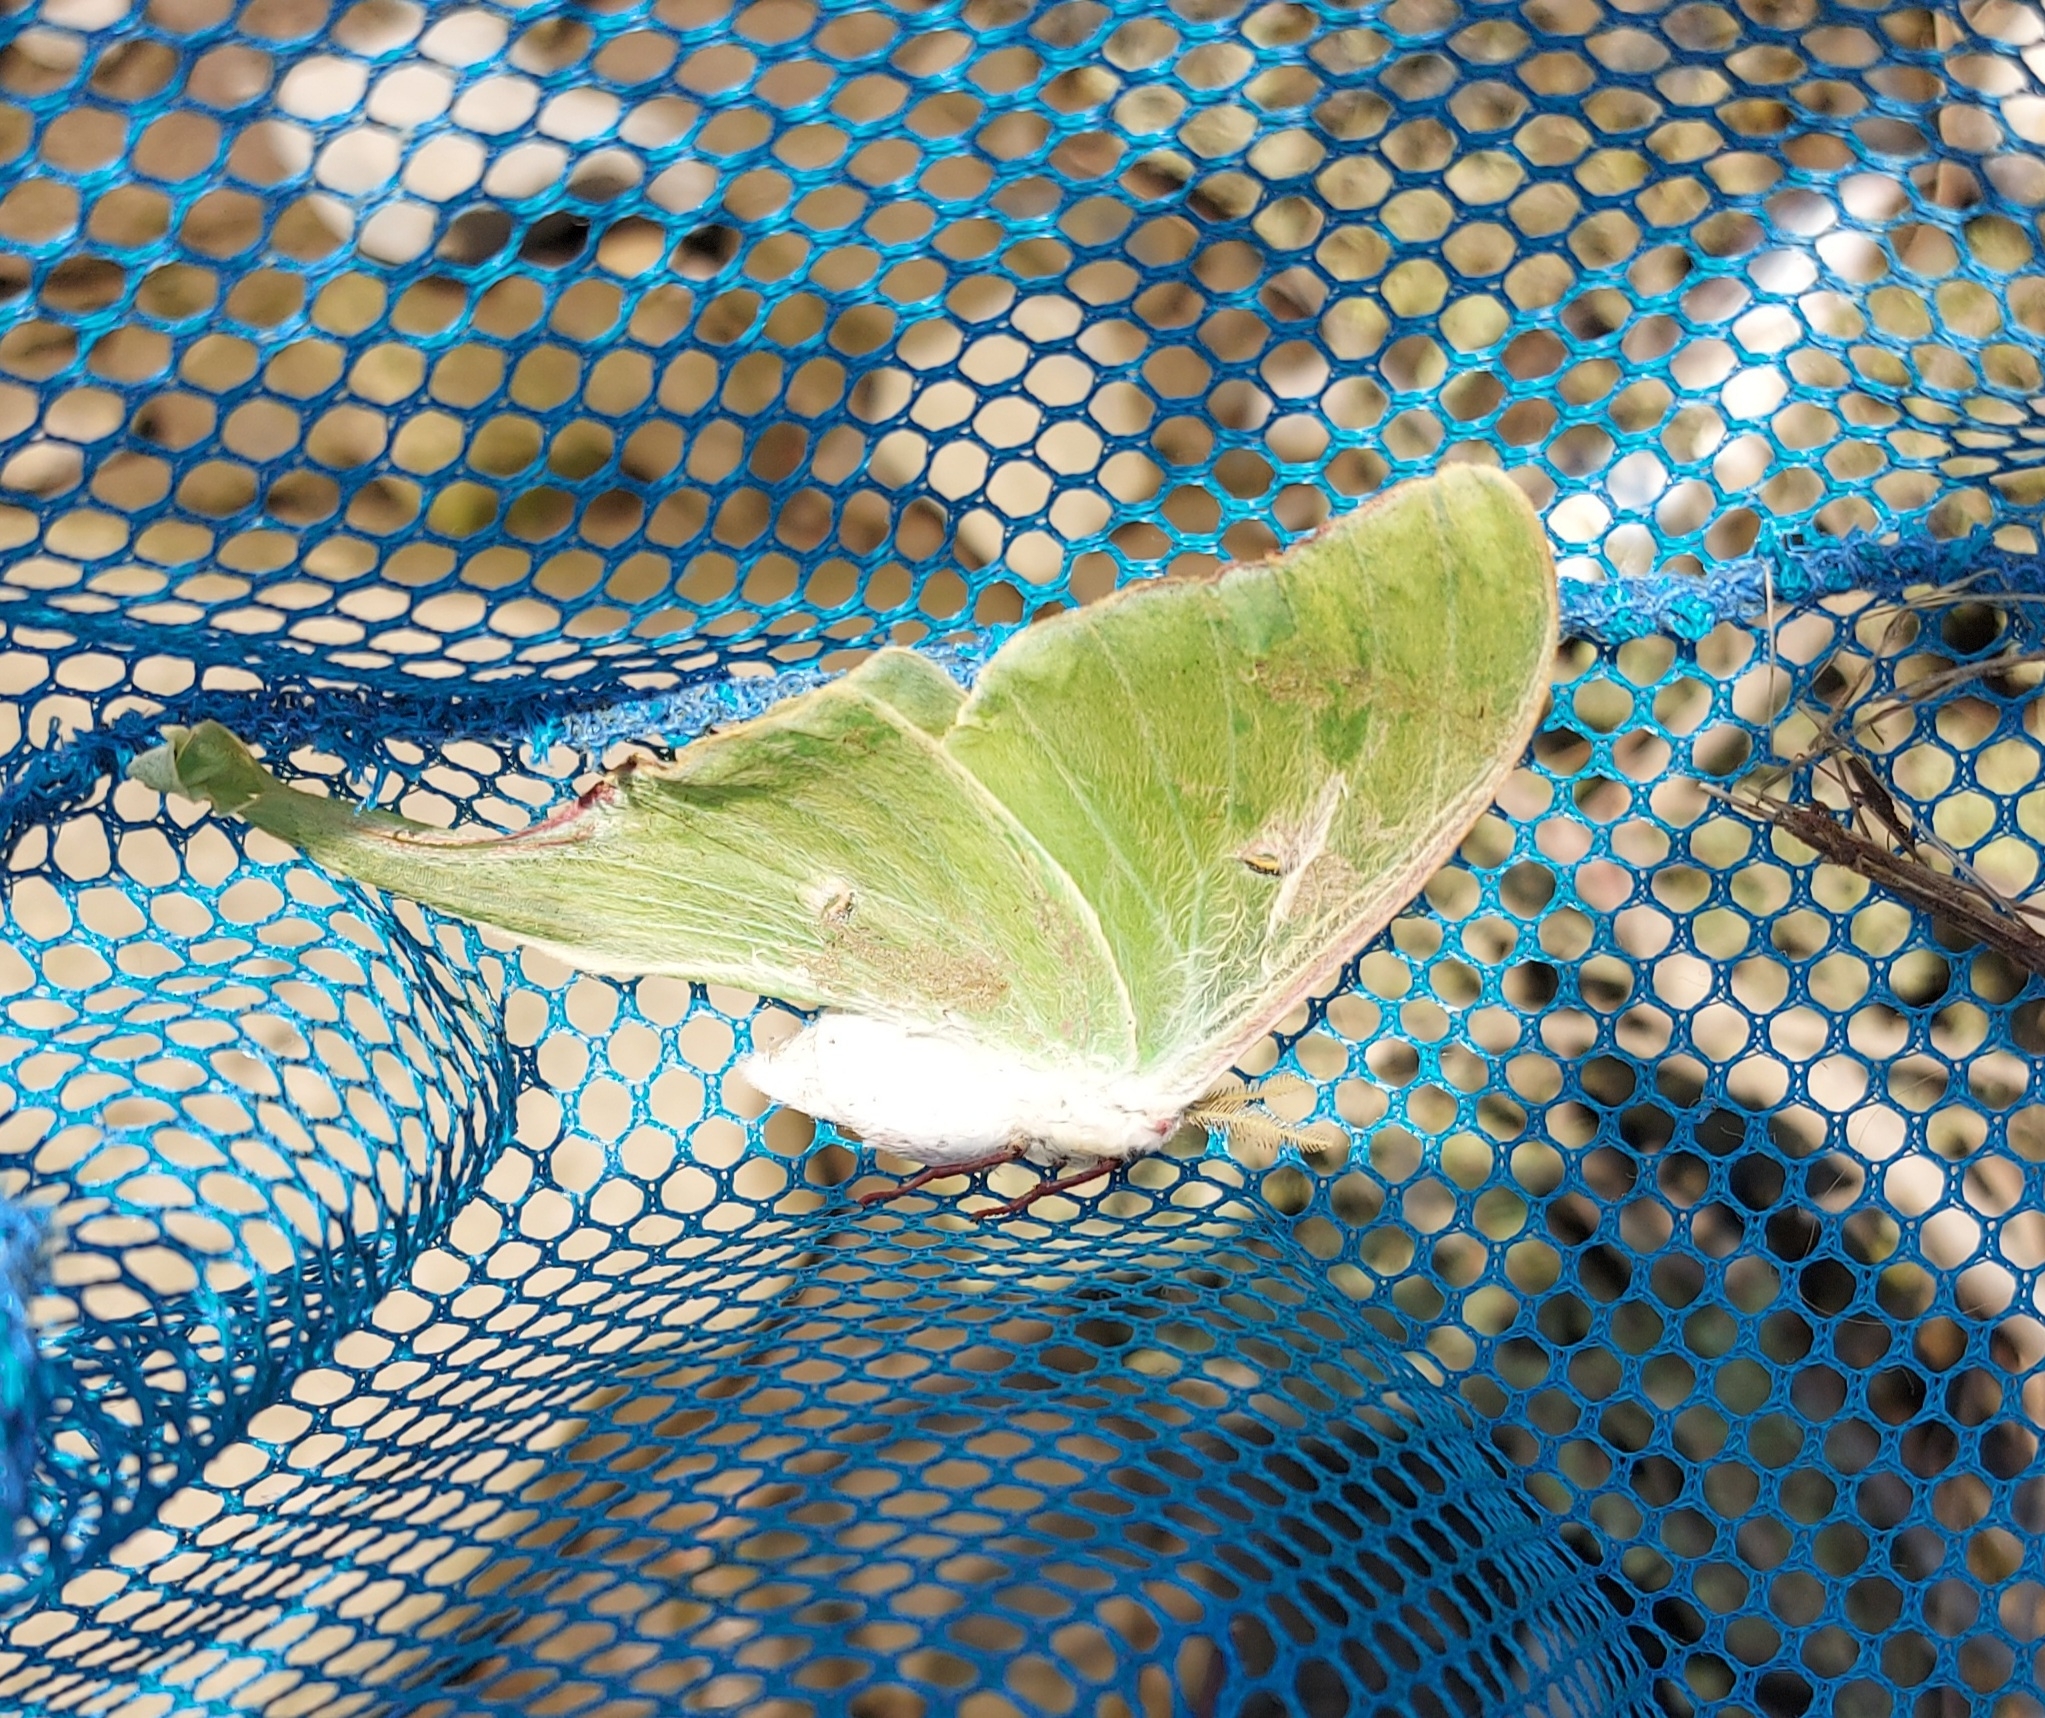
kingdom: Animalia
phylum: Arthropoda
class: Insecta
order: Lepidoptera
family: Saturniidae
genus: Actias
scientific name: Actias luna
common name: Luna moth
